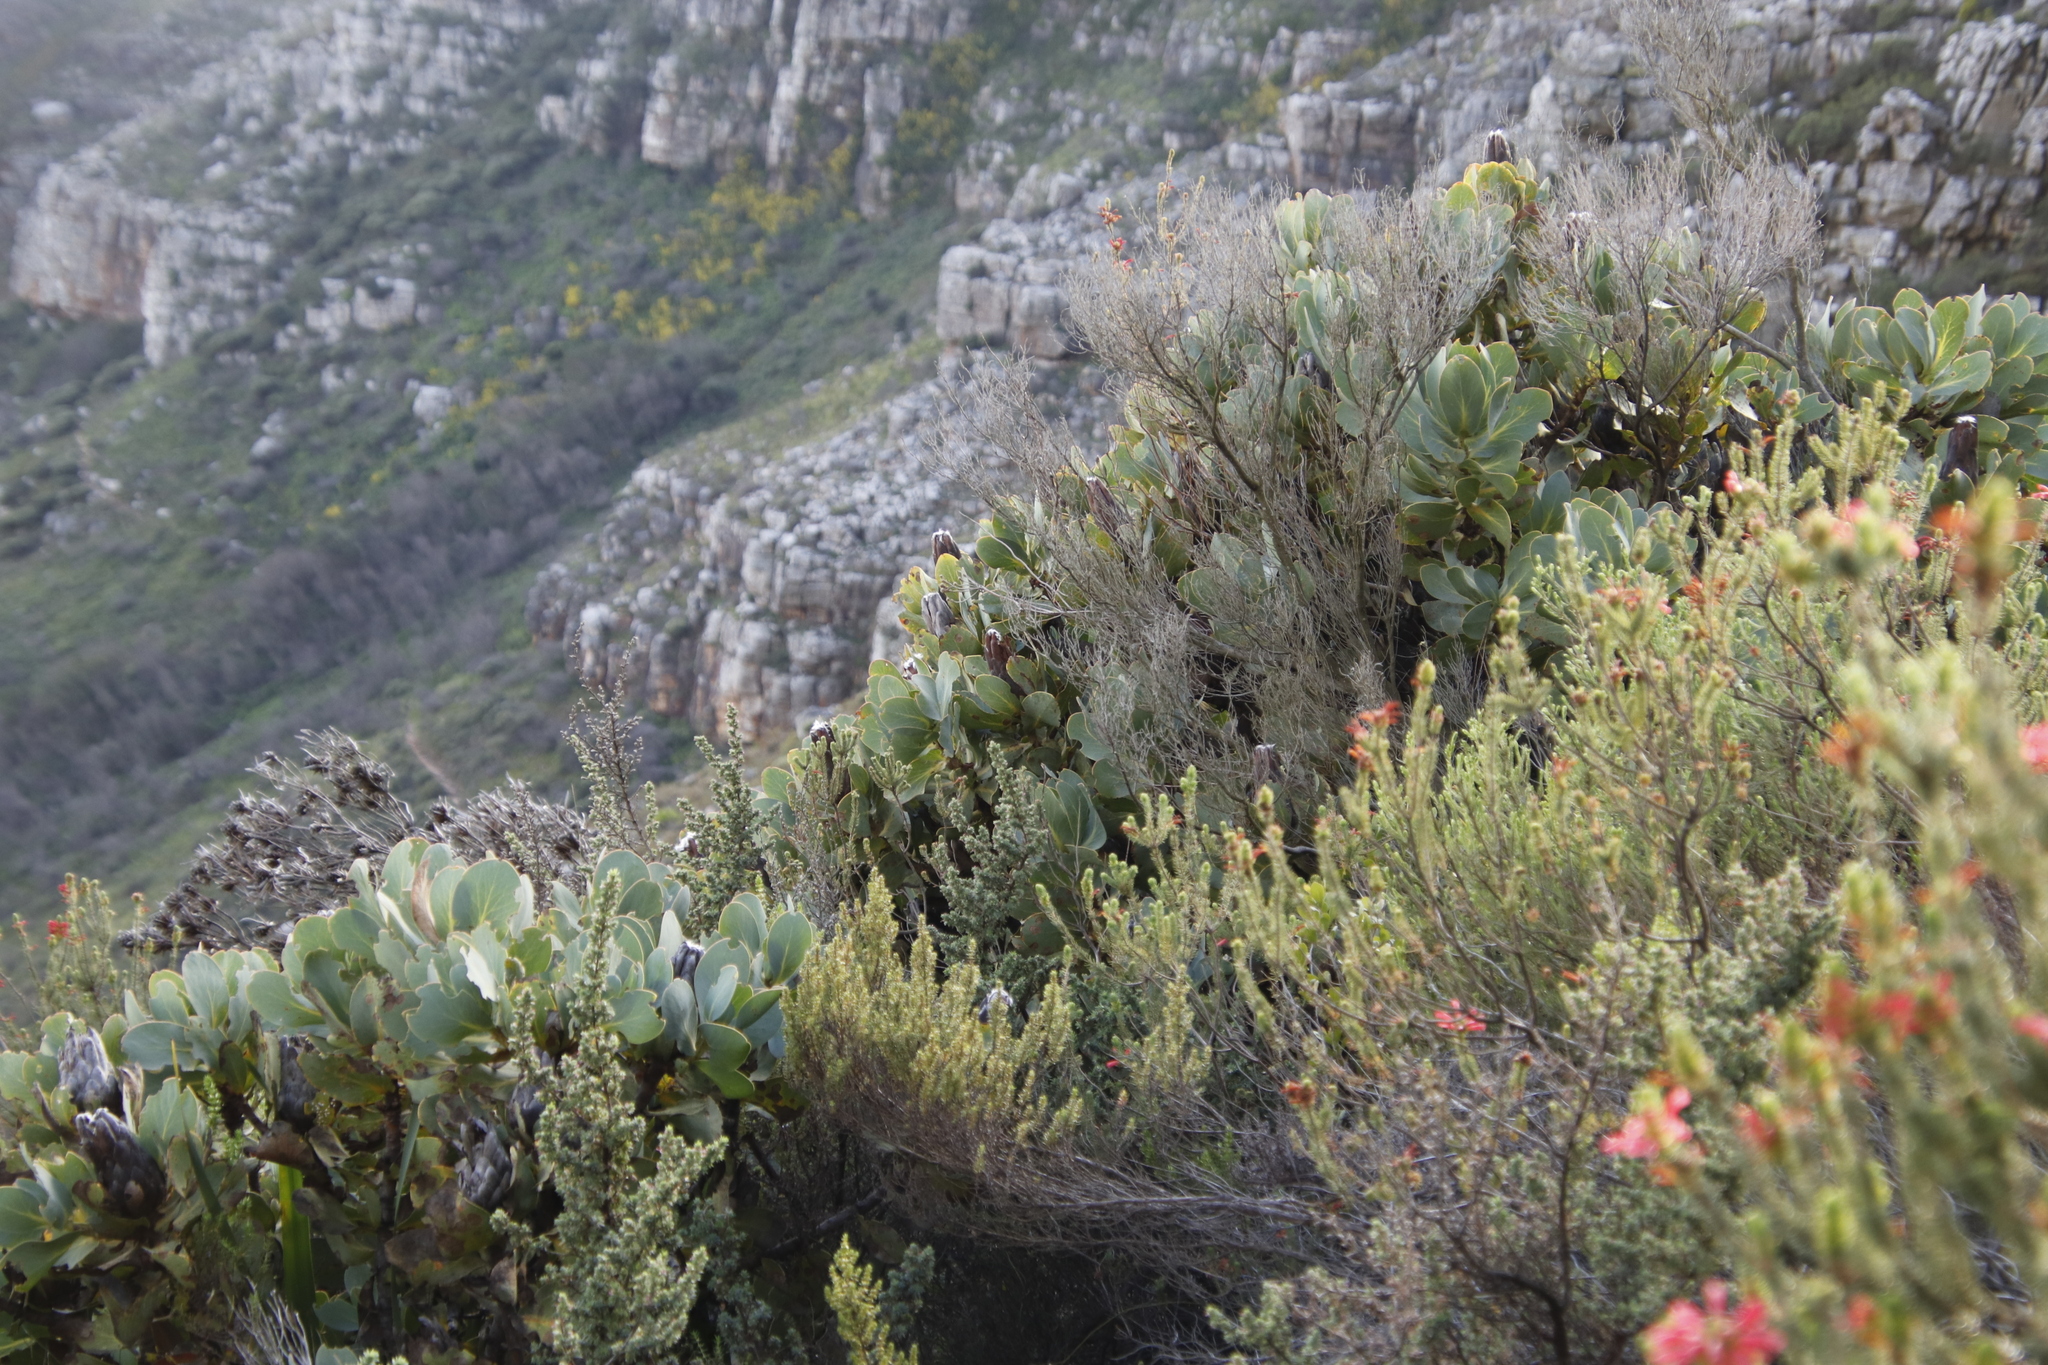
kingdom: Plantae
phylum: Tracheophyta
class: Magnoliopsida
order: Proteales
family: Proteaceae
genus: Protea
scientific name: Protea grandiceps
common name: Red sugarbush
